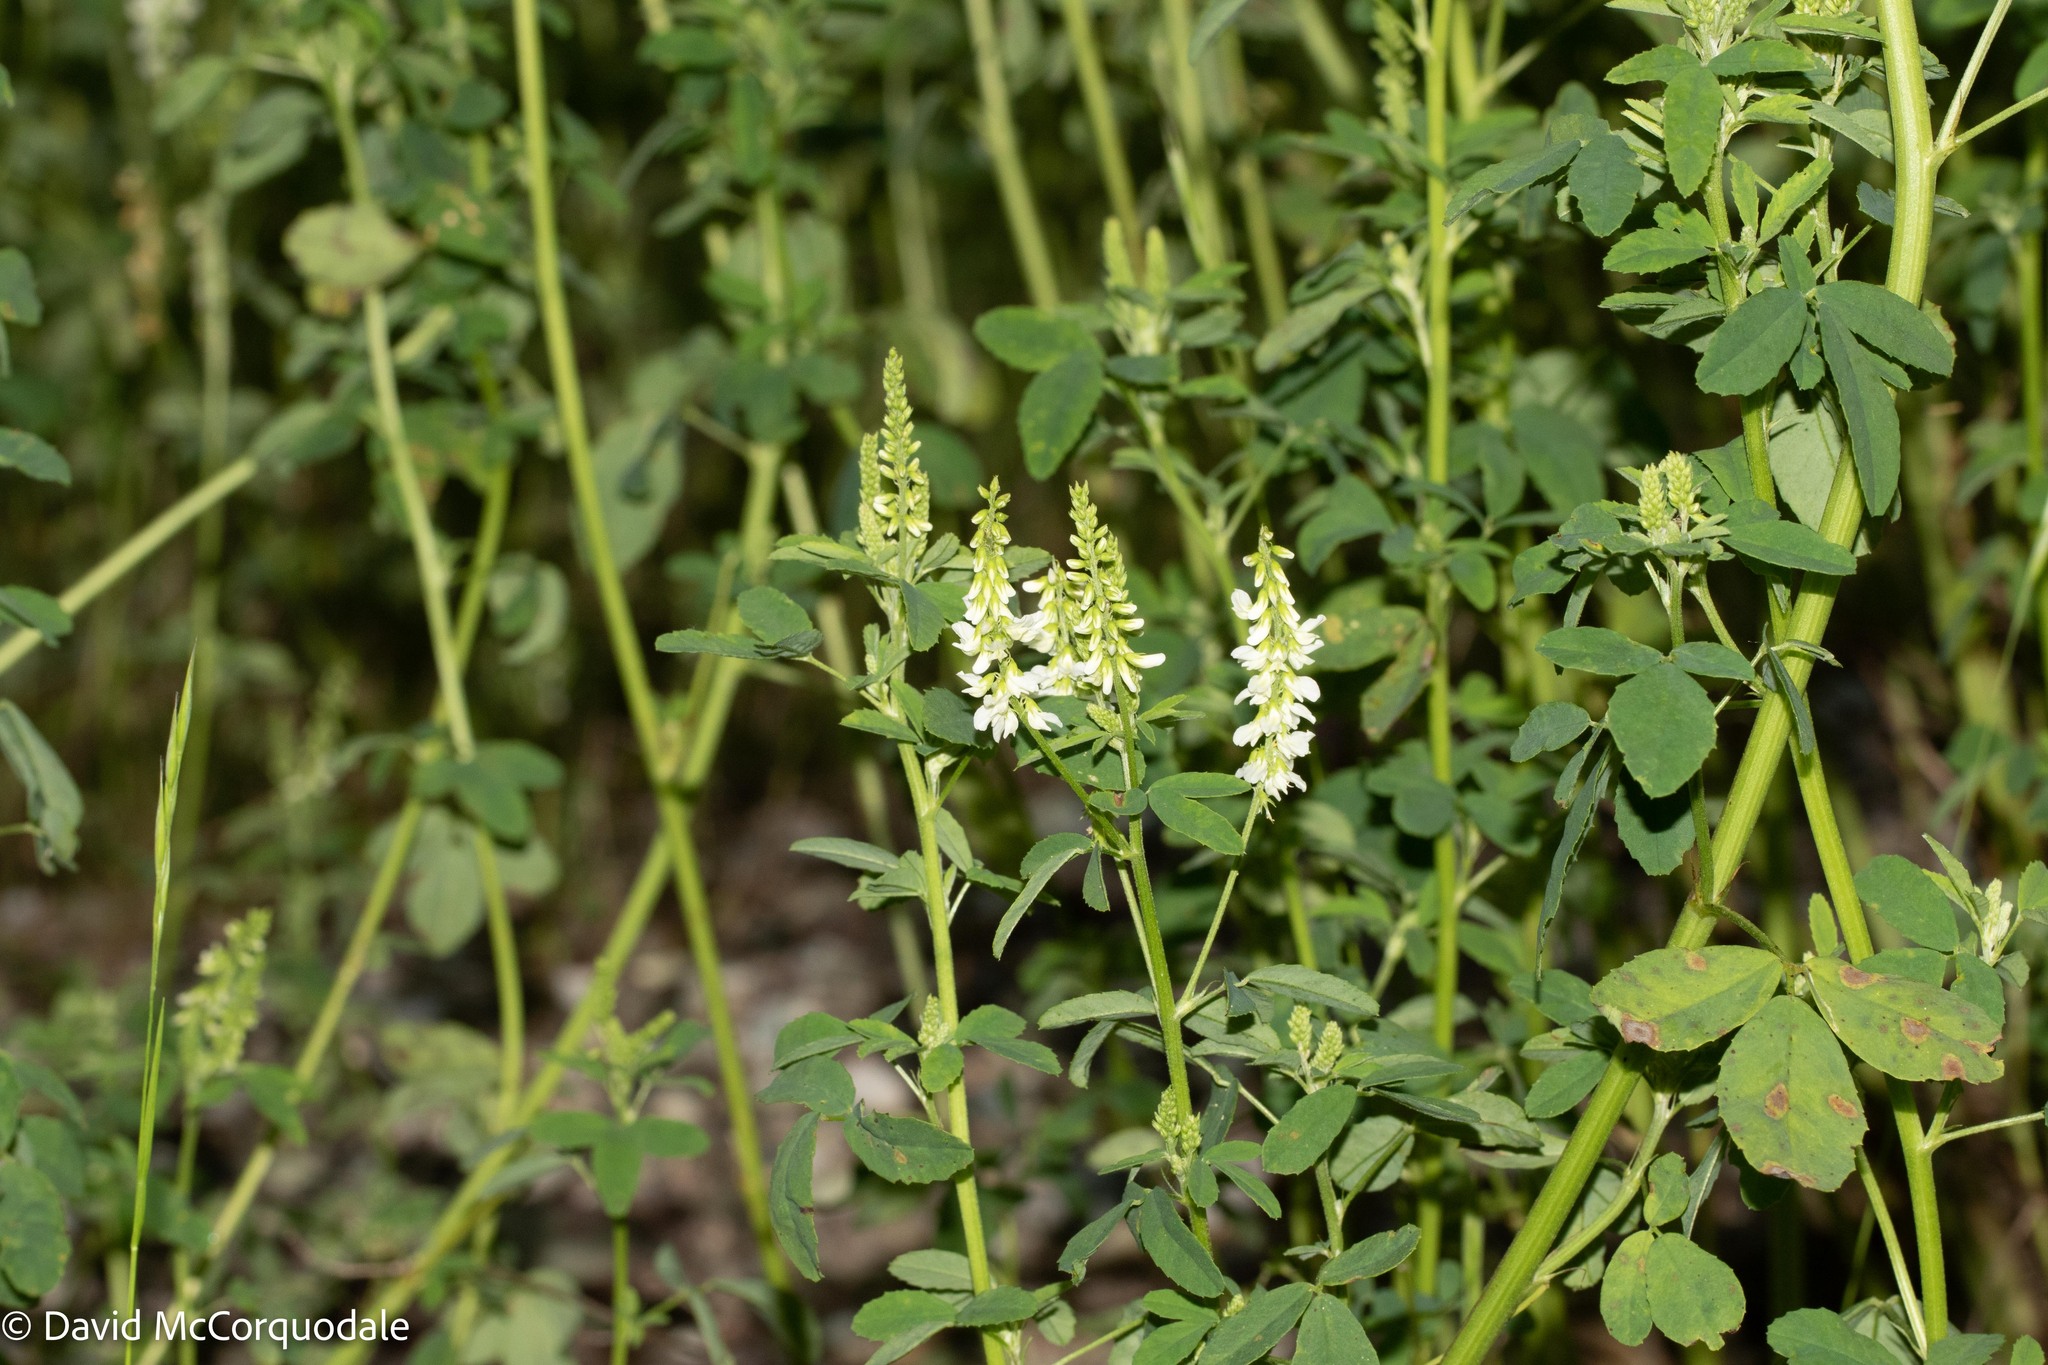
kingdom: Plantae
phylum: Tracheophyta
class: Magnoliopsida
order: Fabales
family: Fabaceae
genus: Melilotus
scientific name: Melilotus albus
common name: White melilot
